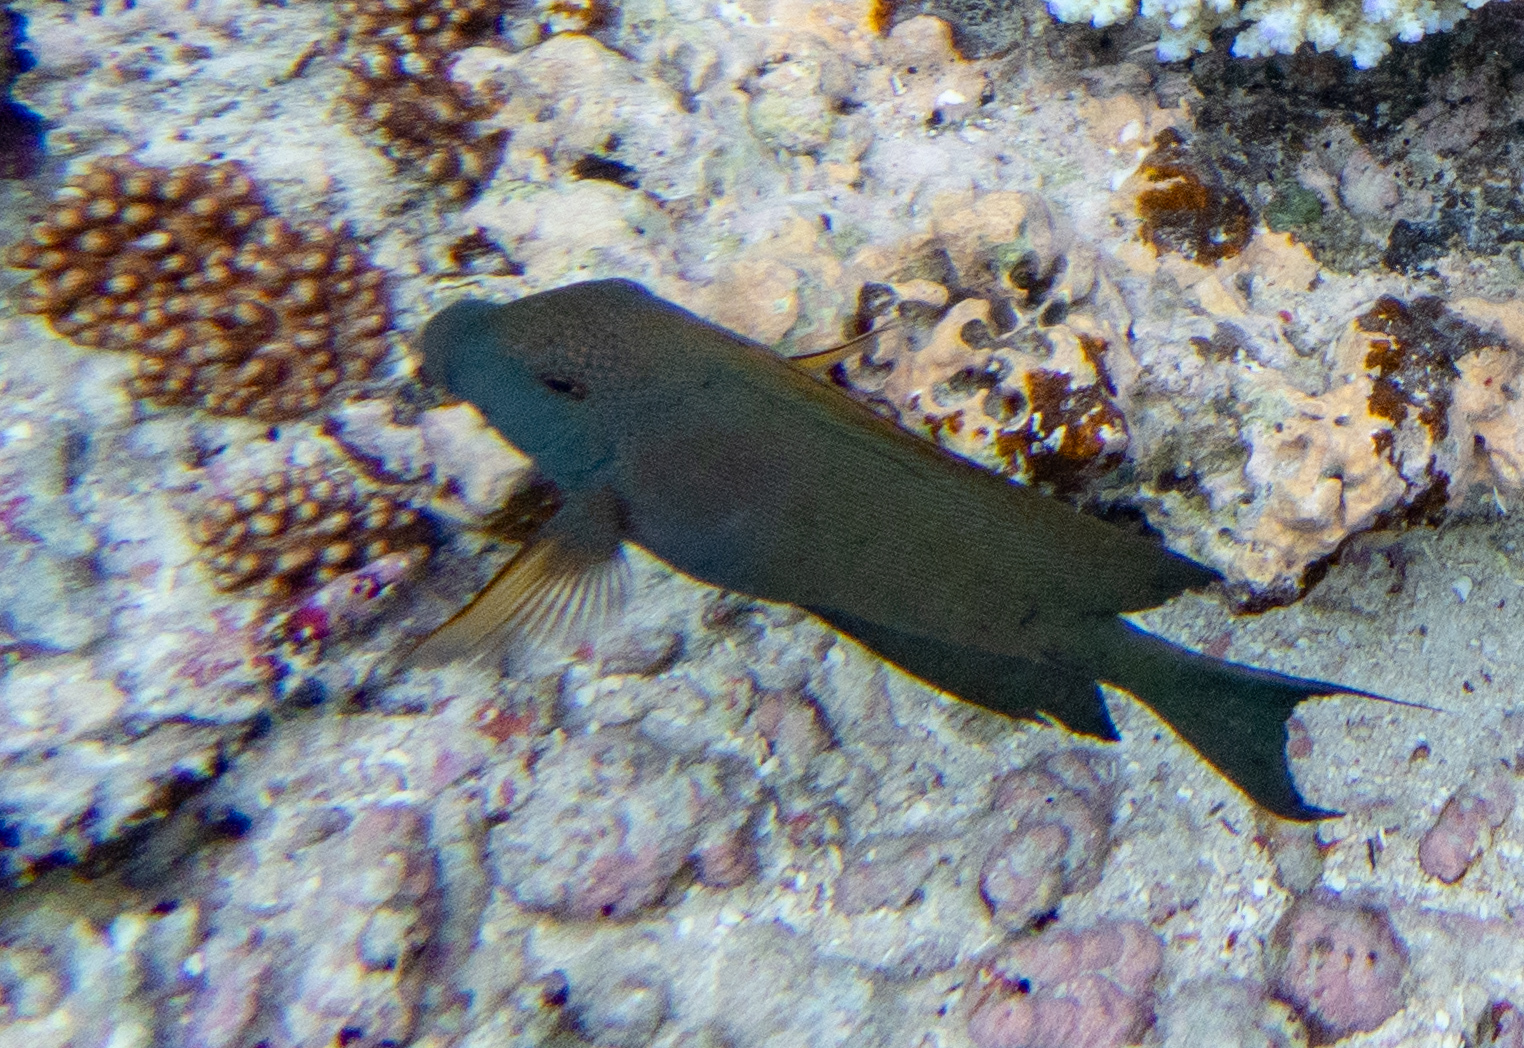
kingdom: Animalia
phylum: Chordata
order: Perciformes
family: Acanthuridae
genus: Ctenochaetus
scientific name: Ctenochaetus striatus
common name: Bristle-toothed surgeonfish
